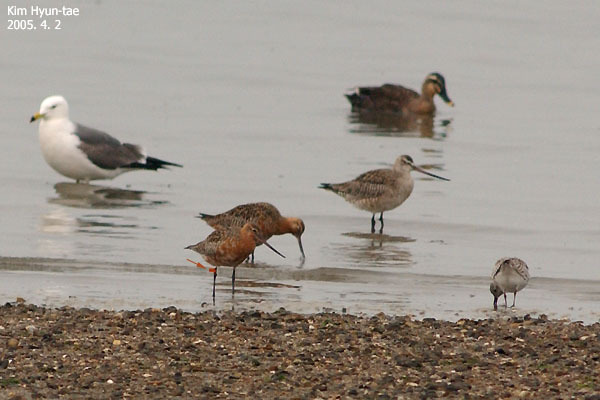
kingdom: Animalia
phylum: Chordata
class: Aves
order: Charadriiformes
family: Scolopacidae
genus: Limosa
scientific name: Limosa lapponica
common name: Bar-tailed godwit
